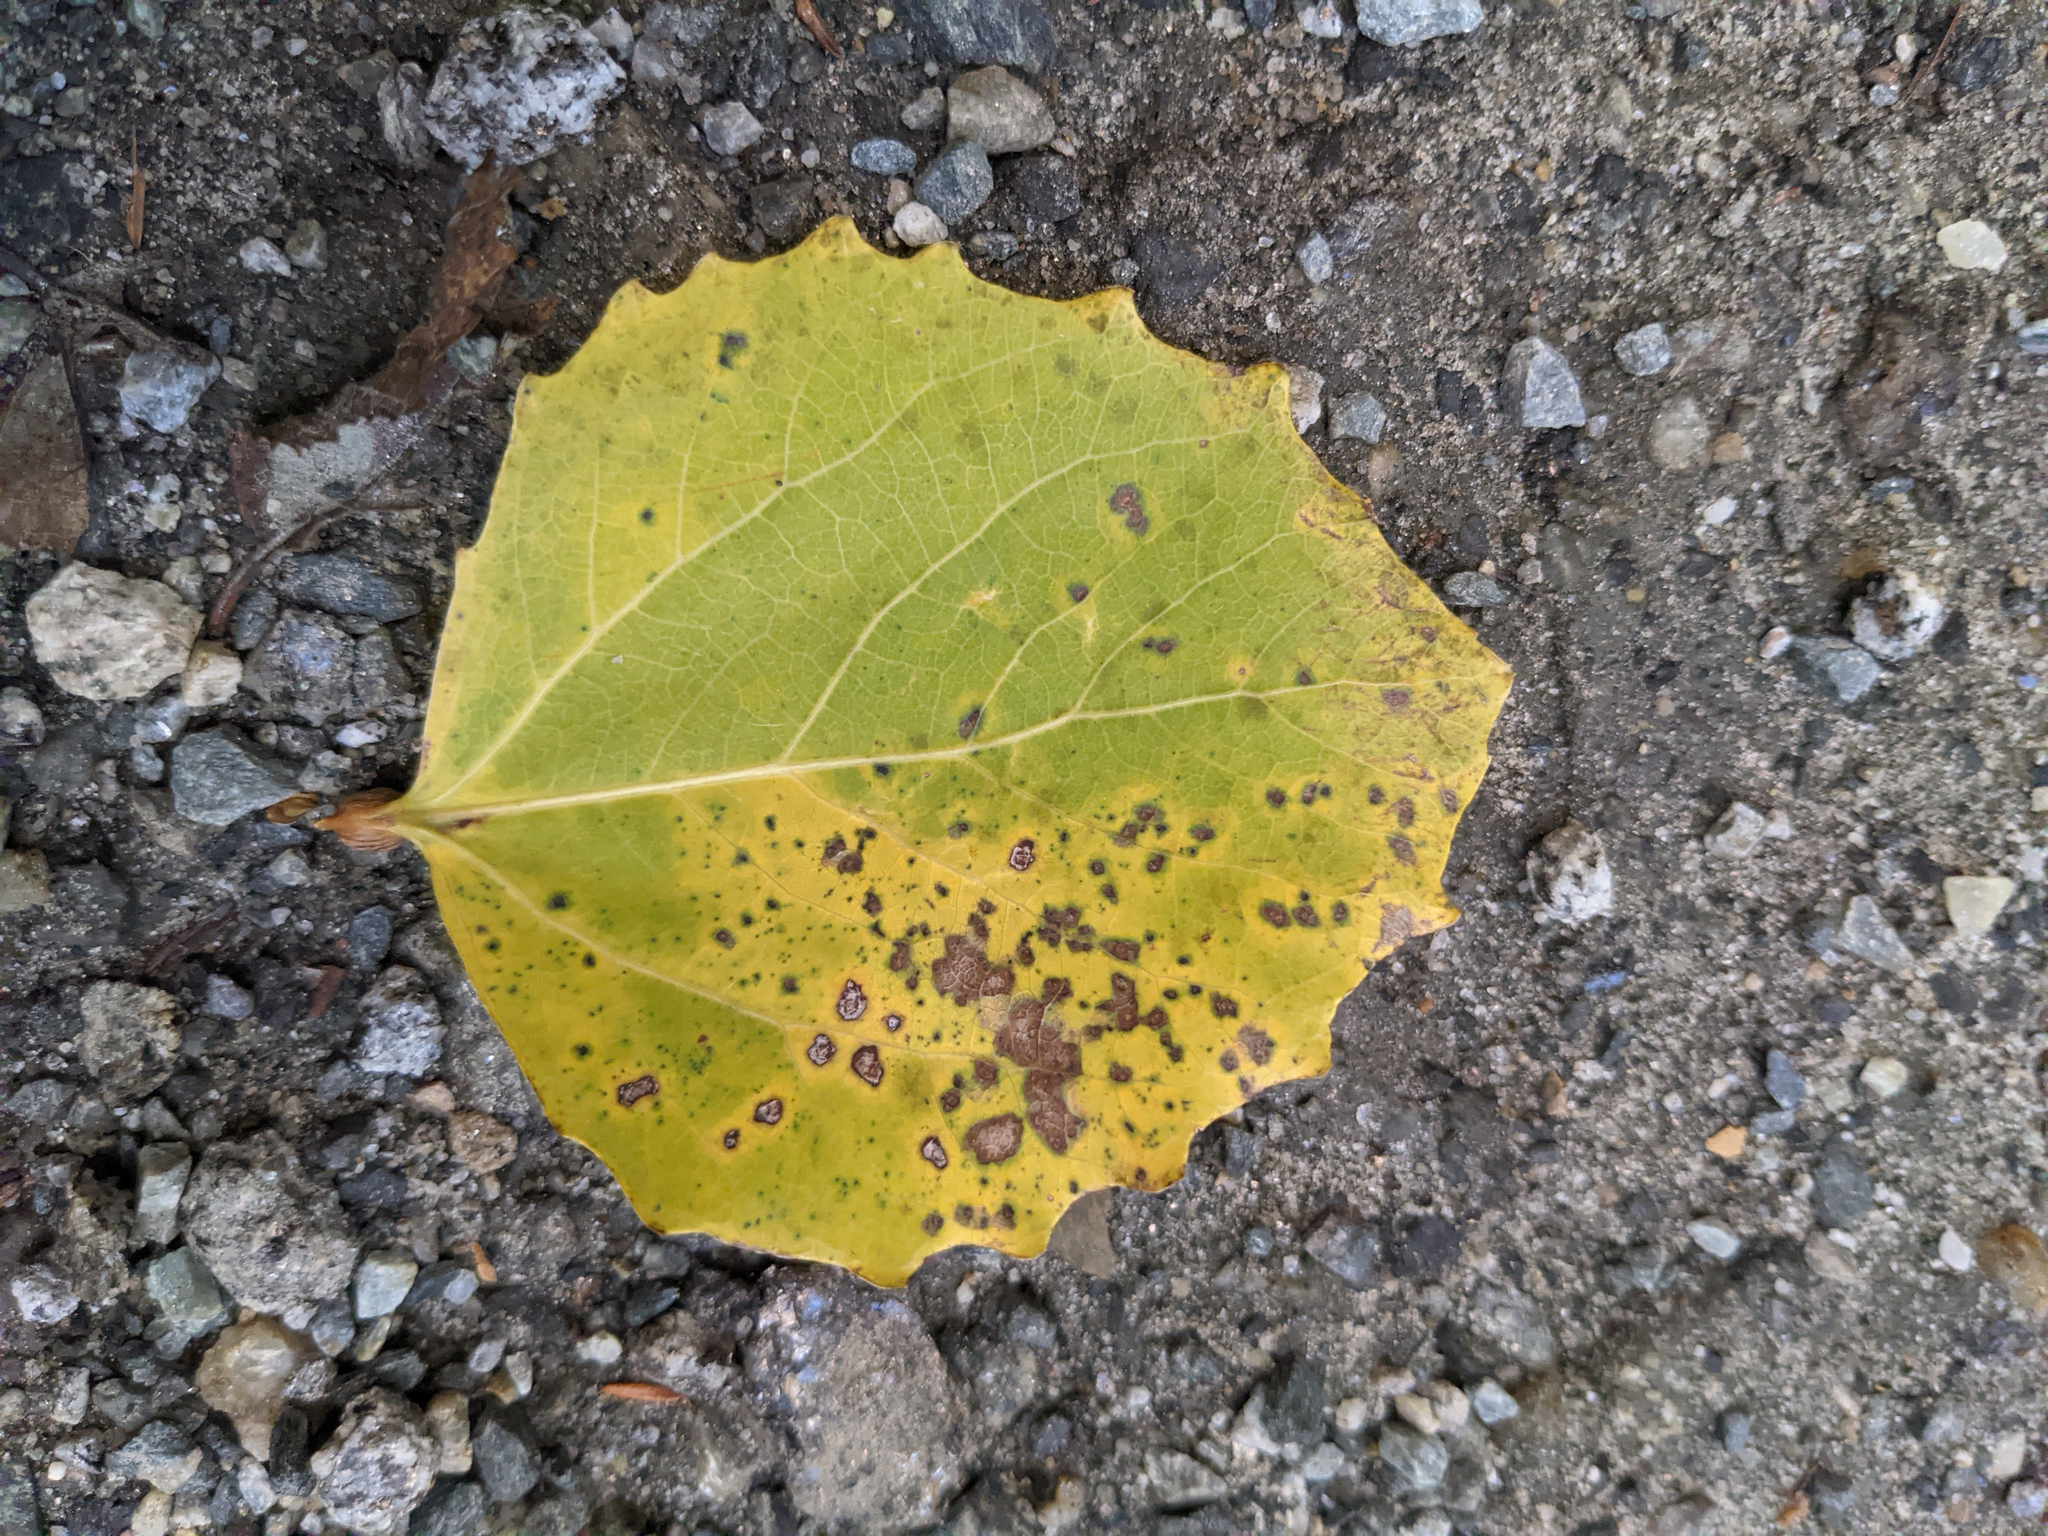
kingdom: Plantae
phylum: Tracheophyta
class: Magnoliopsida
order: Malpighiales
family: Salicaceae
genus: Populus
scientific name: Populus grandidentata
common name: Bigtooth aspen
